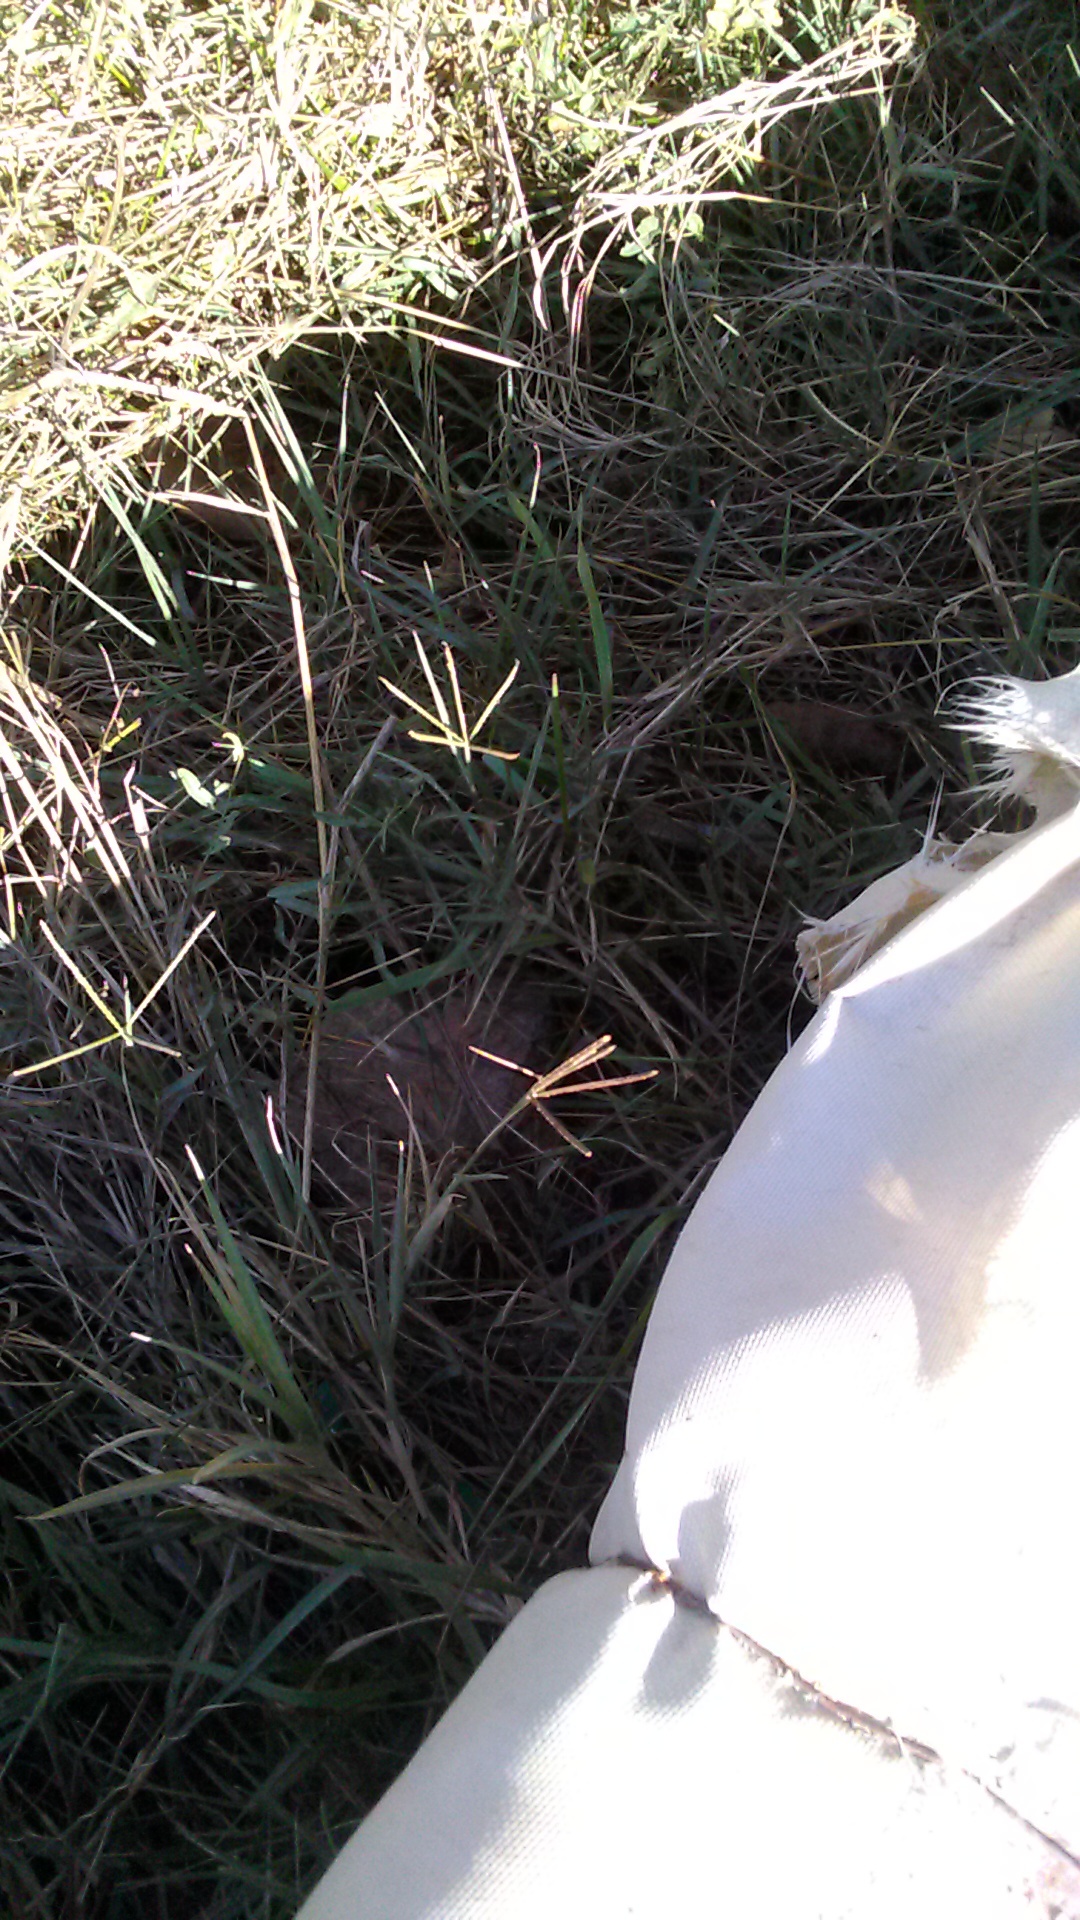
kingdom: Plantae
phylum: Tracheophyta
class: Liliopsida
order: Poales
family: Poaceae
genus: Cynodon
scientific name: Cynodon dactylon
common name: Bermuda grass
